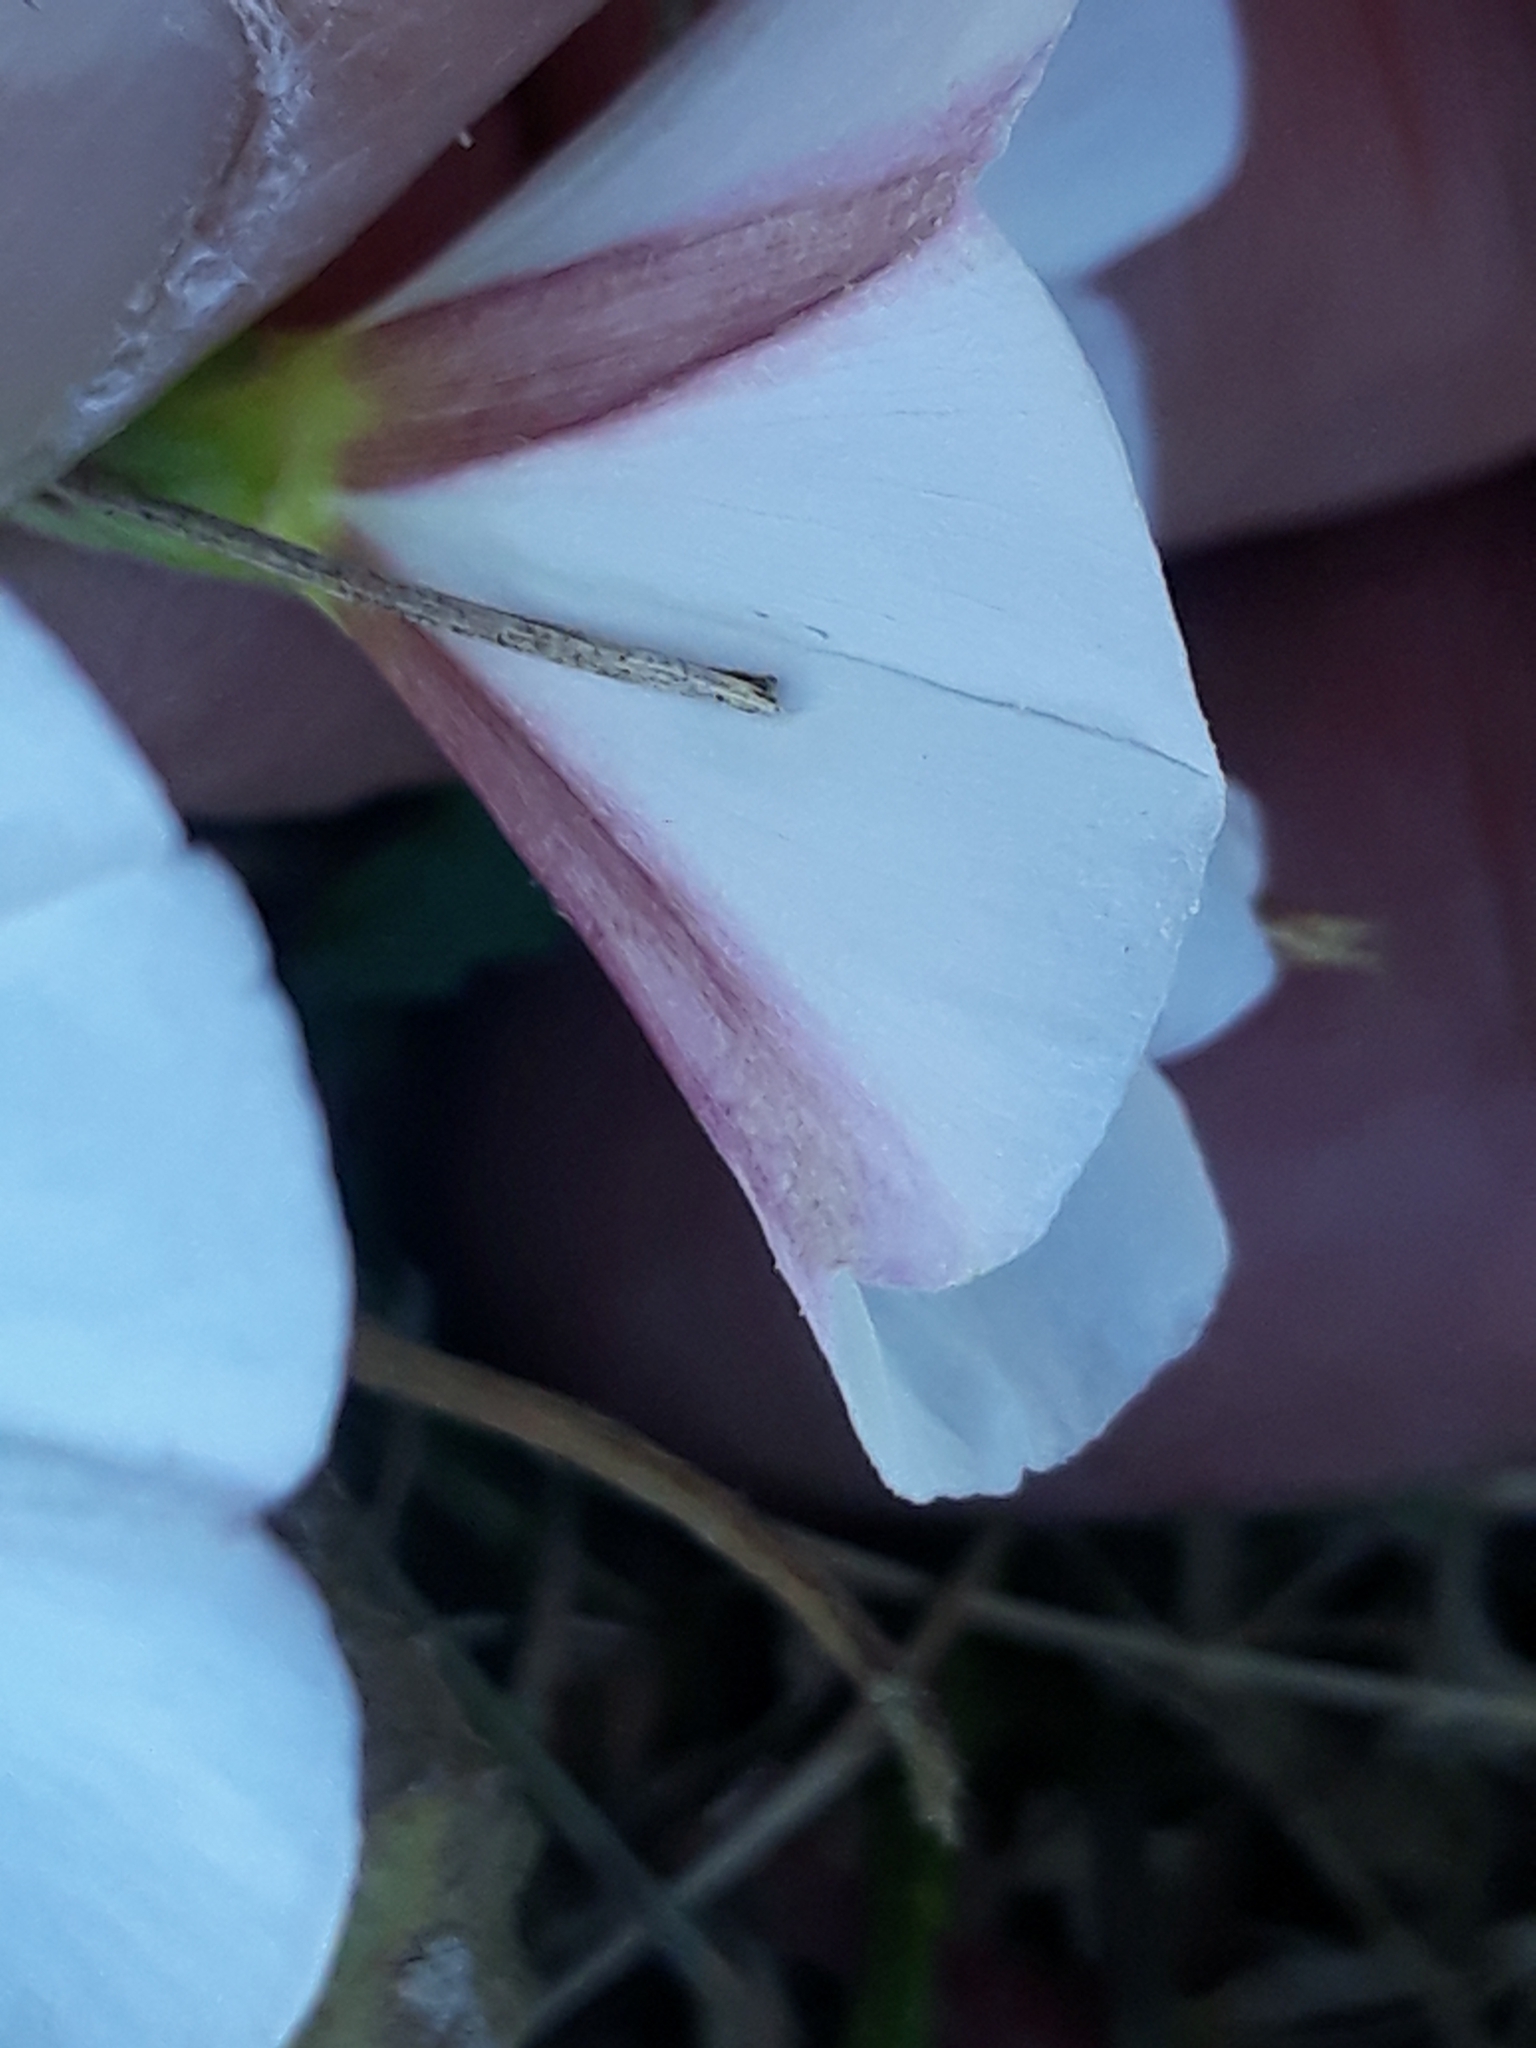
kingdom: Plantae
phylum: Tracheophyta
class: Magnoliopsida
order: Solanales
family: Convolvulaceae
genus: Convolvulus
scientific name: Convolvulus arvensis
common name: Field bindweed
